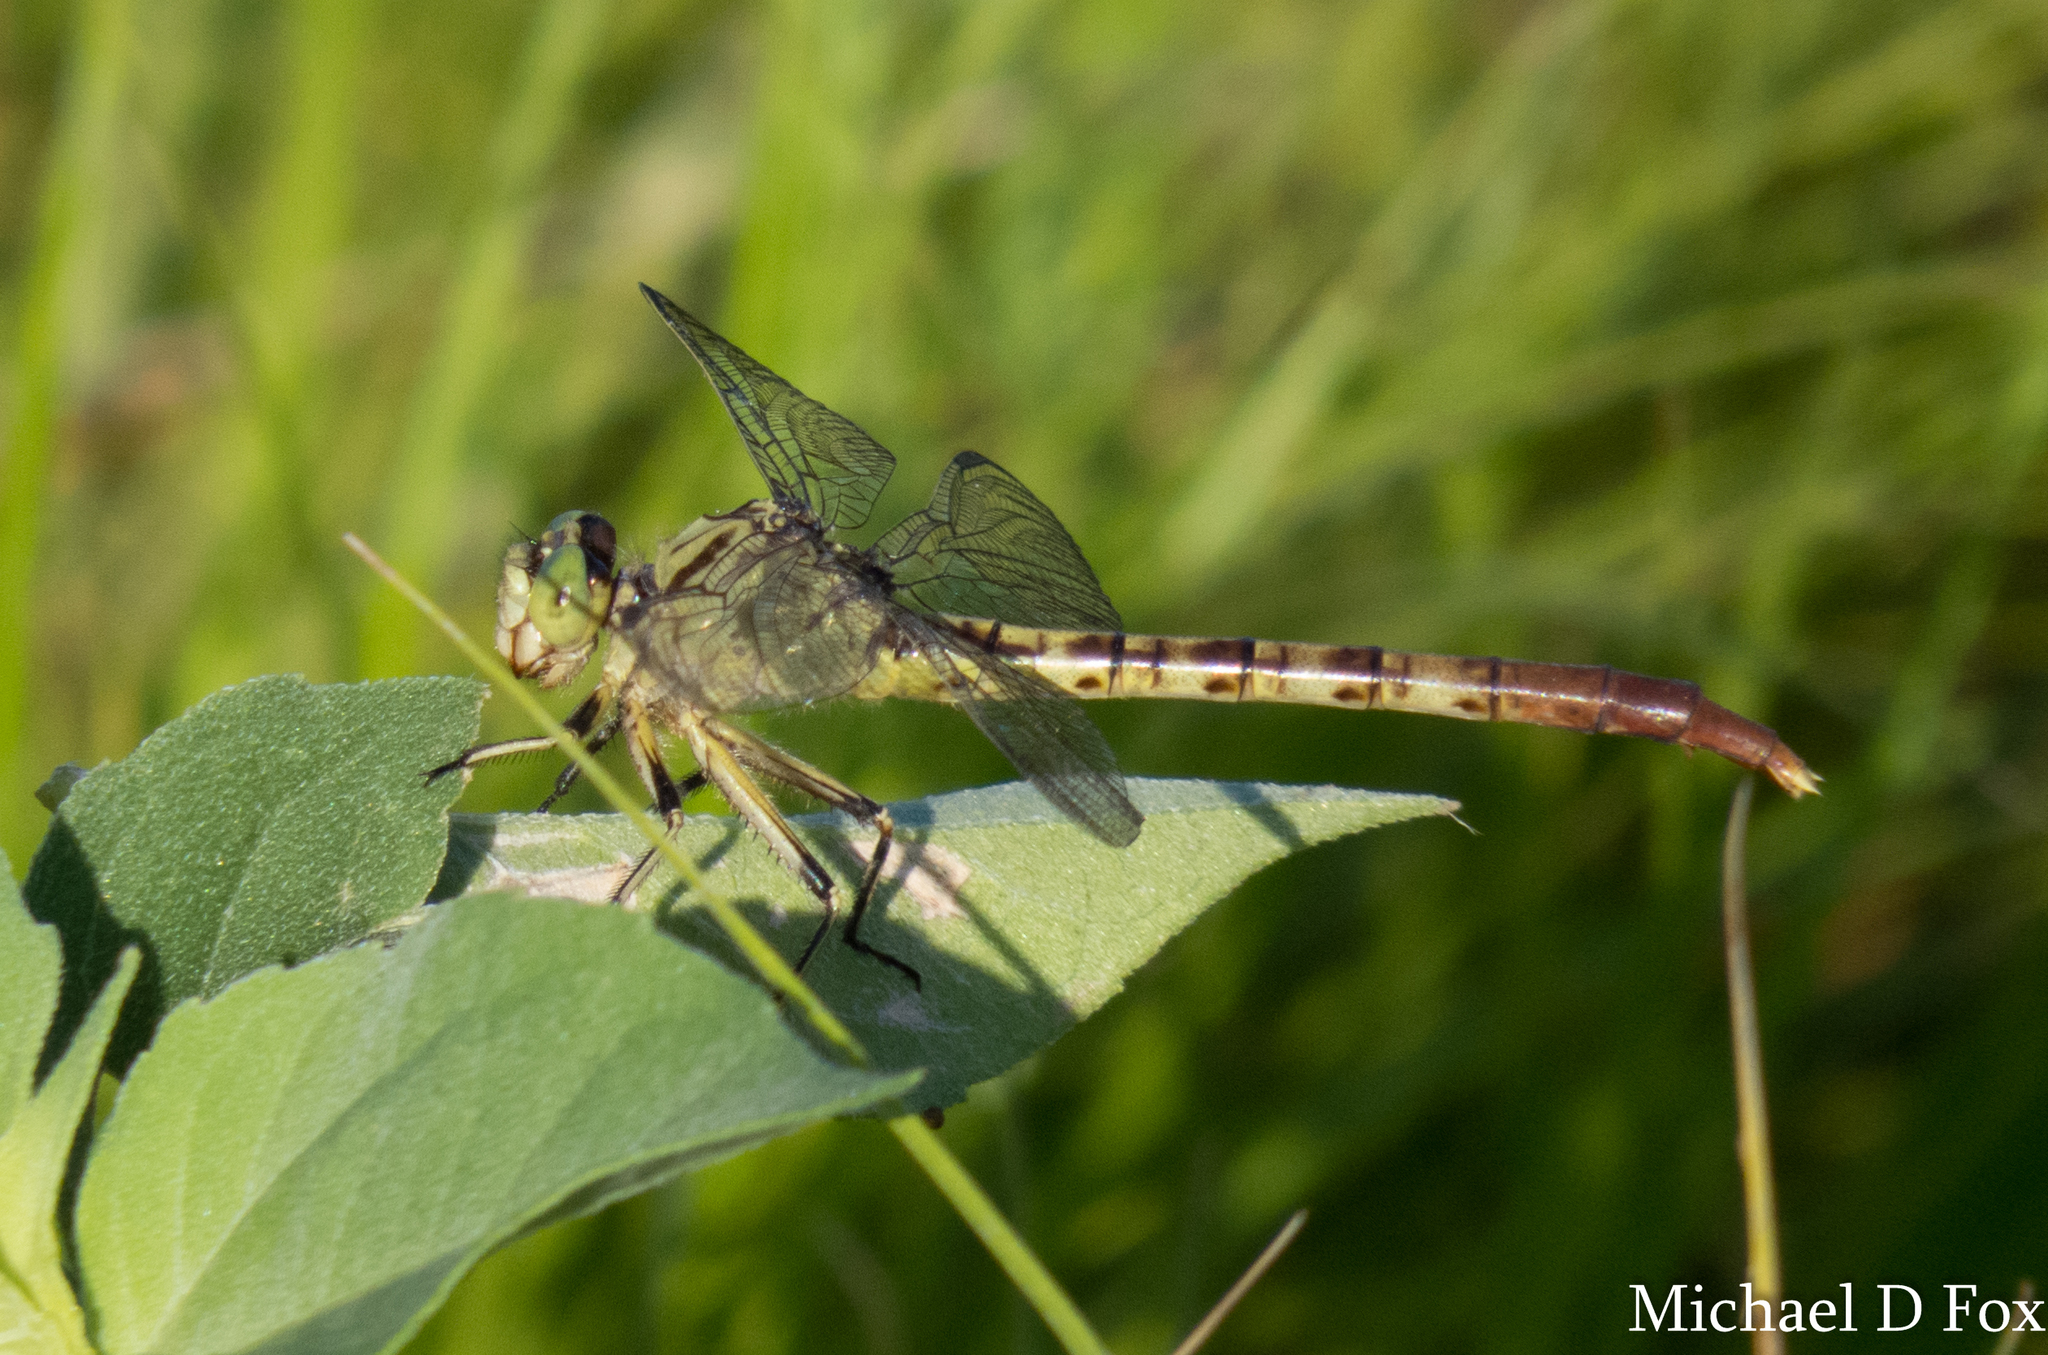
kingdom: Animalia
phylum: Arthropoda
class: Insecta
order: Odonata
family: Gomphidae
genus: Arigomphus
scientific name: Arigomphus submedianus
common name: Jade clubtail
